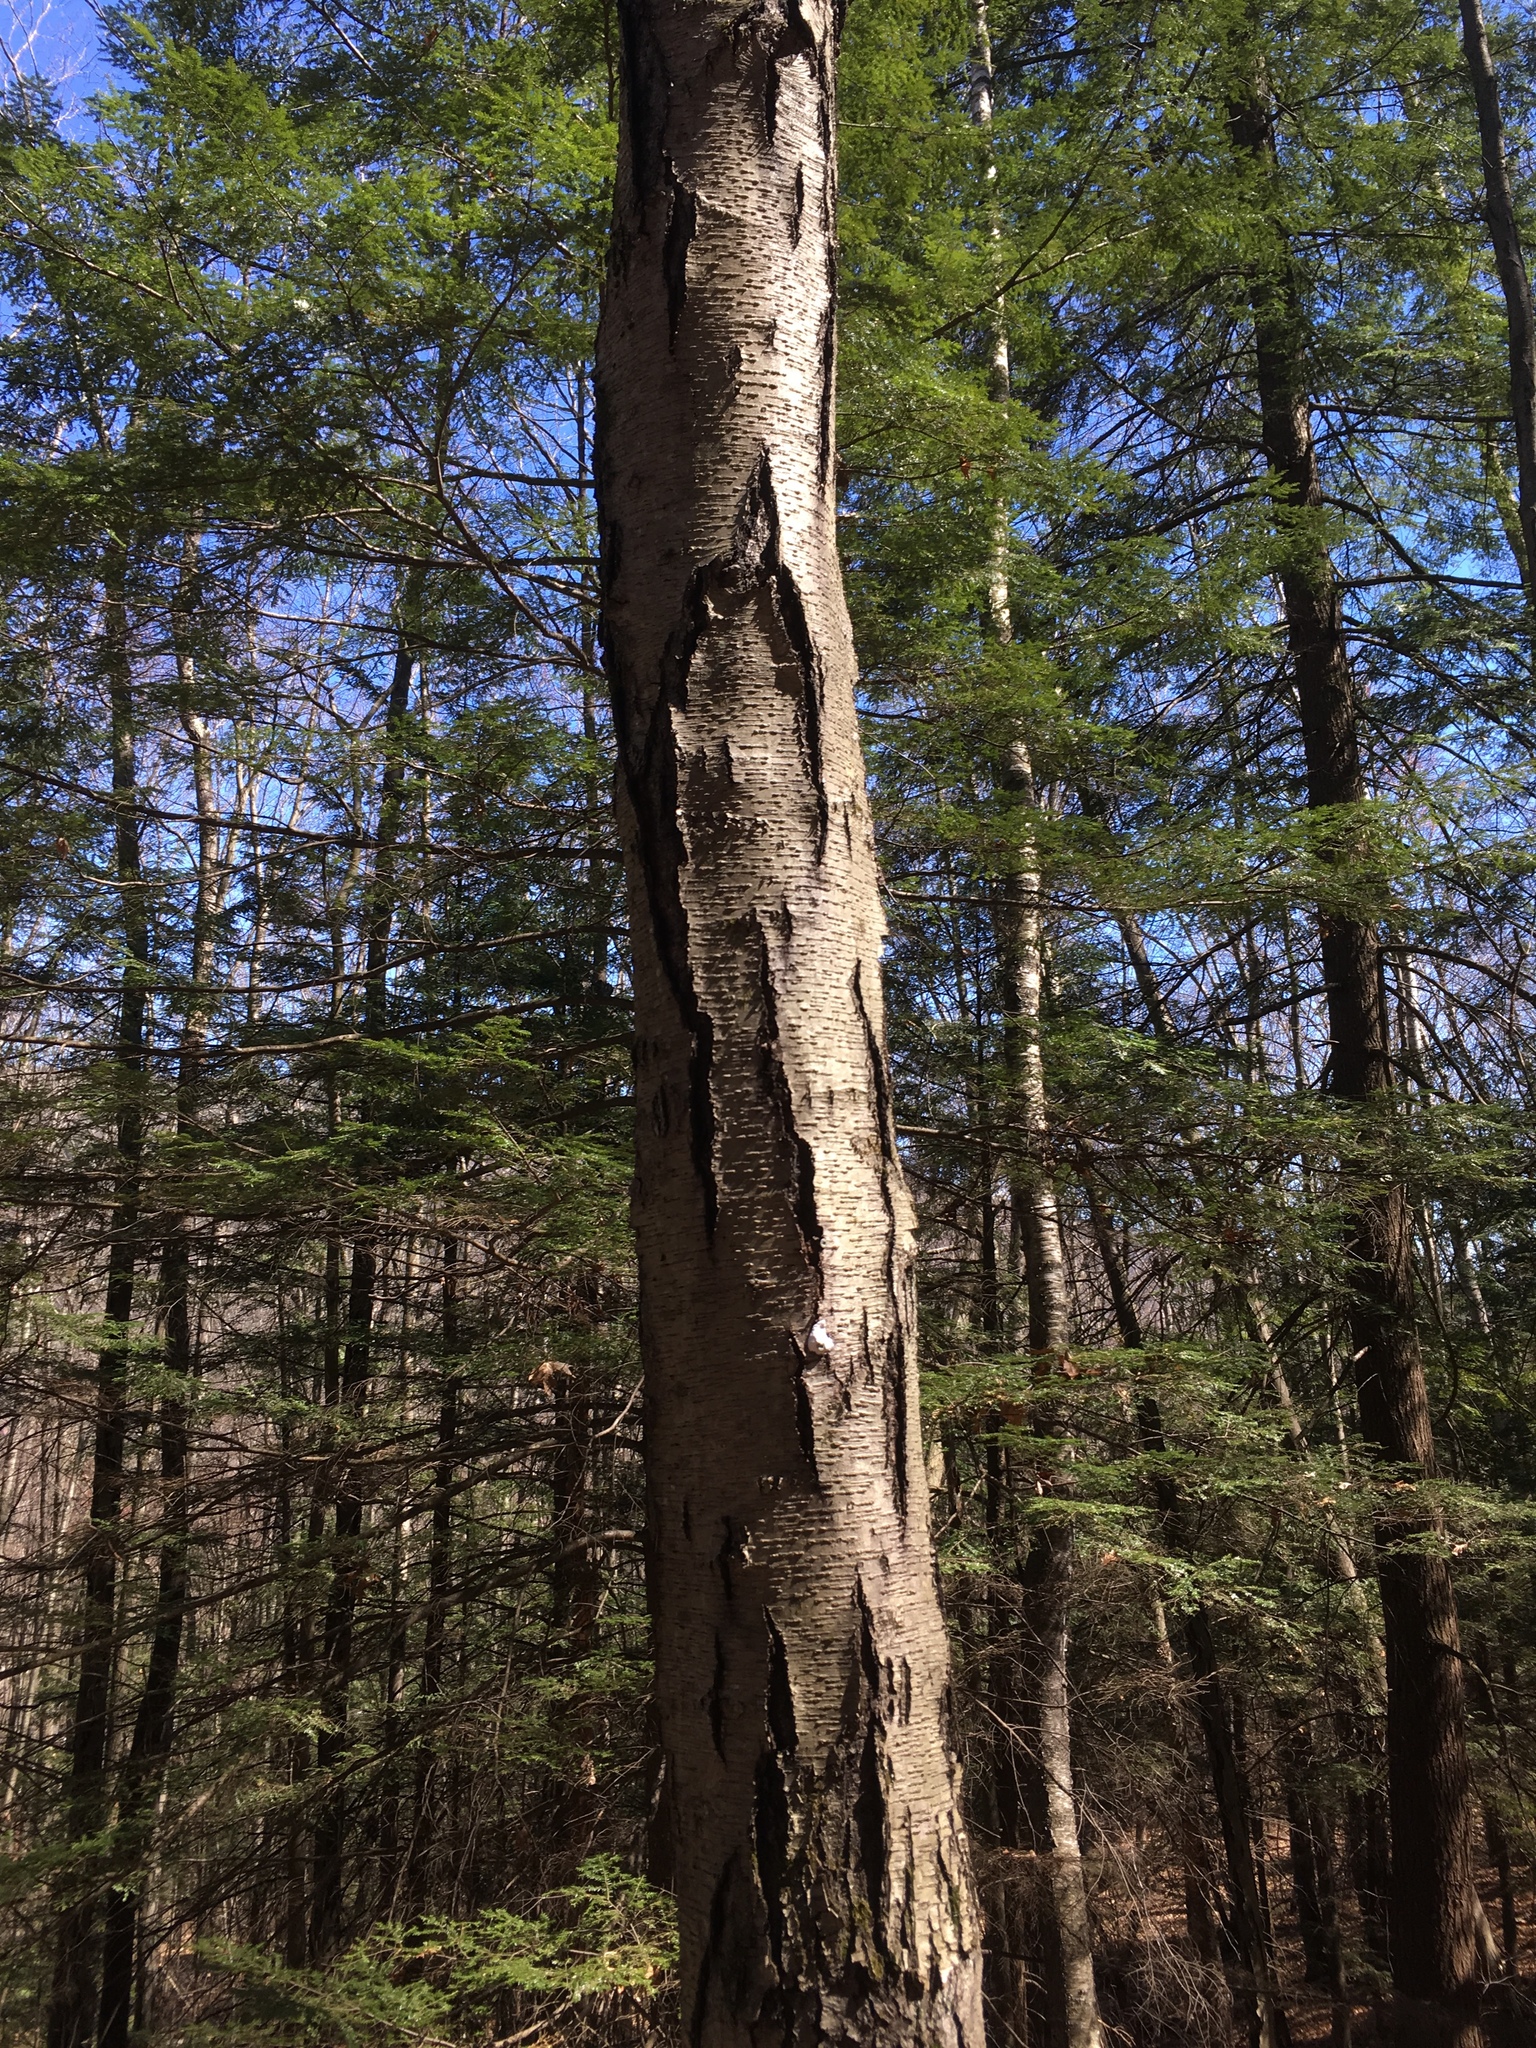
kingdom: Plantae
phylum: Tracheophyta
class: Magnoliopsida
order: Fagales
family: Betulaceae
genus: Betula
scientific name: Betula lenta
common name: Black birch
